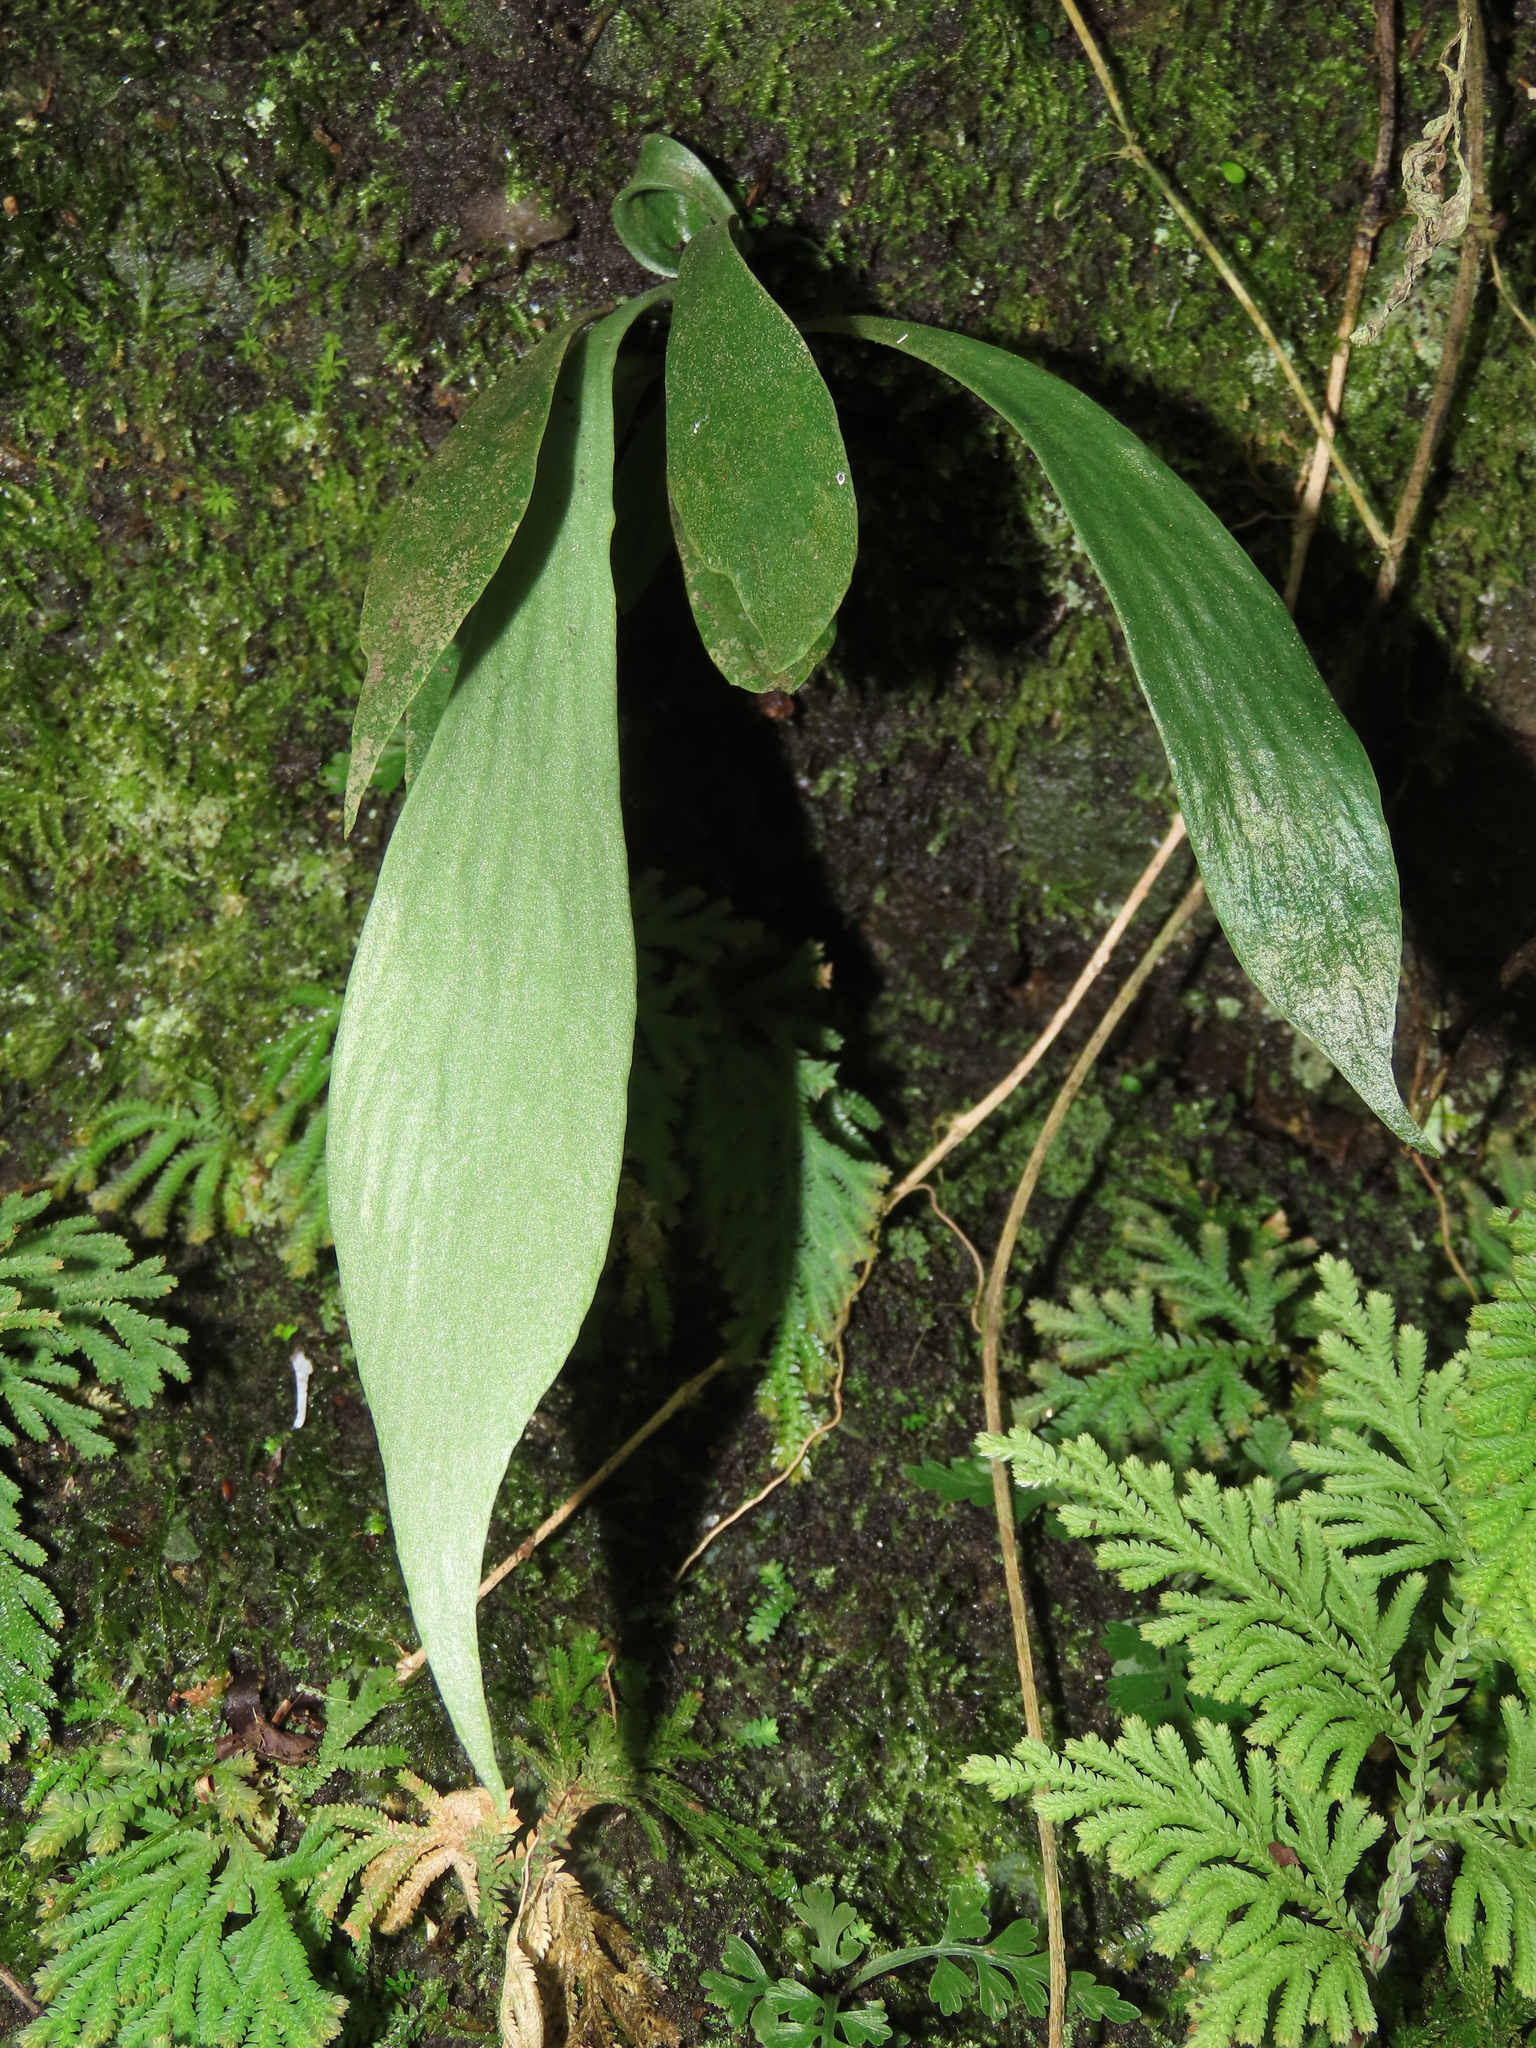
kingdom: Plantae
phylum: Tracheophyta
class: Polypodiopsida
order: Polypodiales
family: Pteridaceae
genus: Antrophyum
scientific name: Antrophyum formosanum
